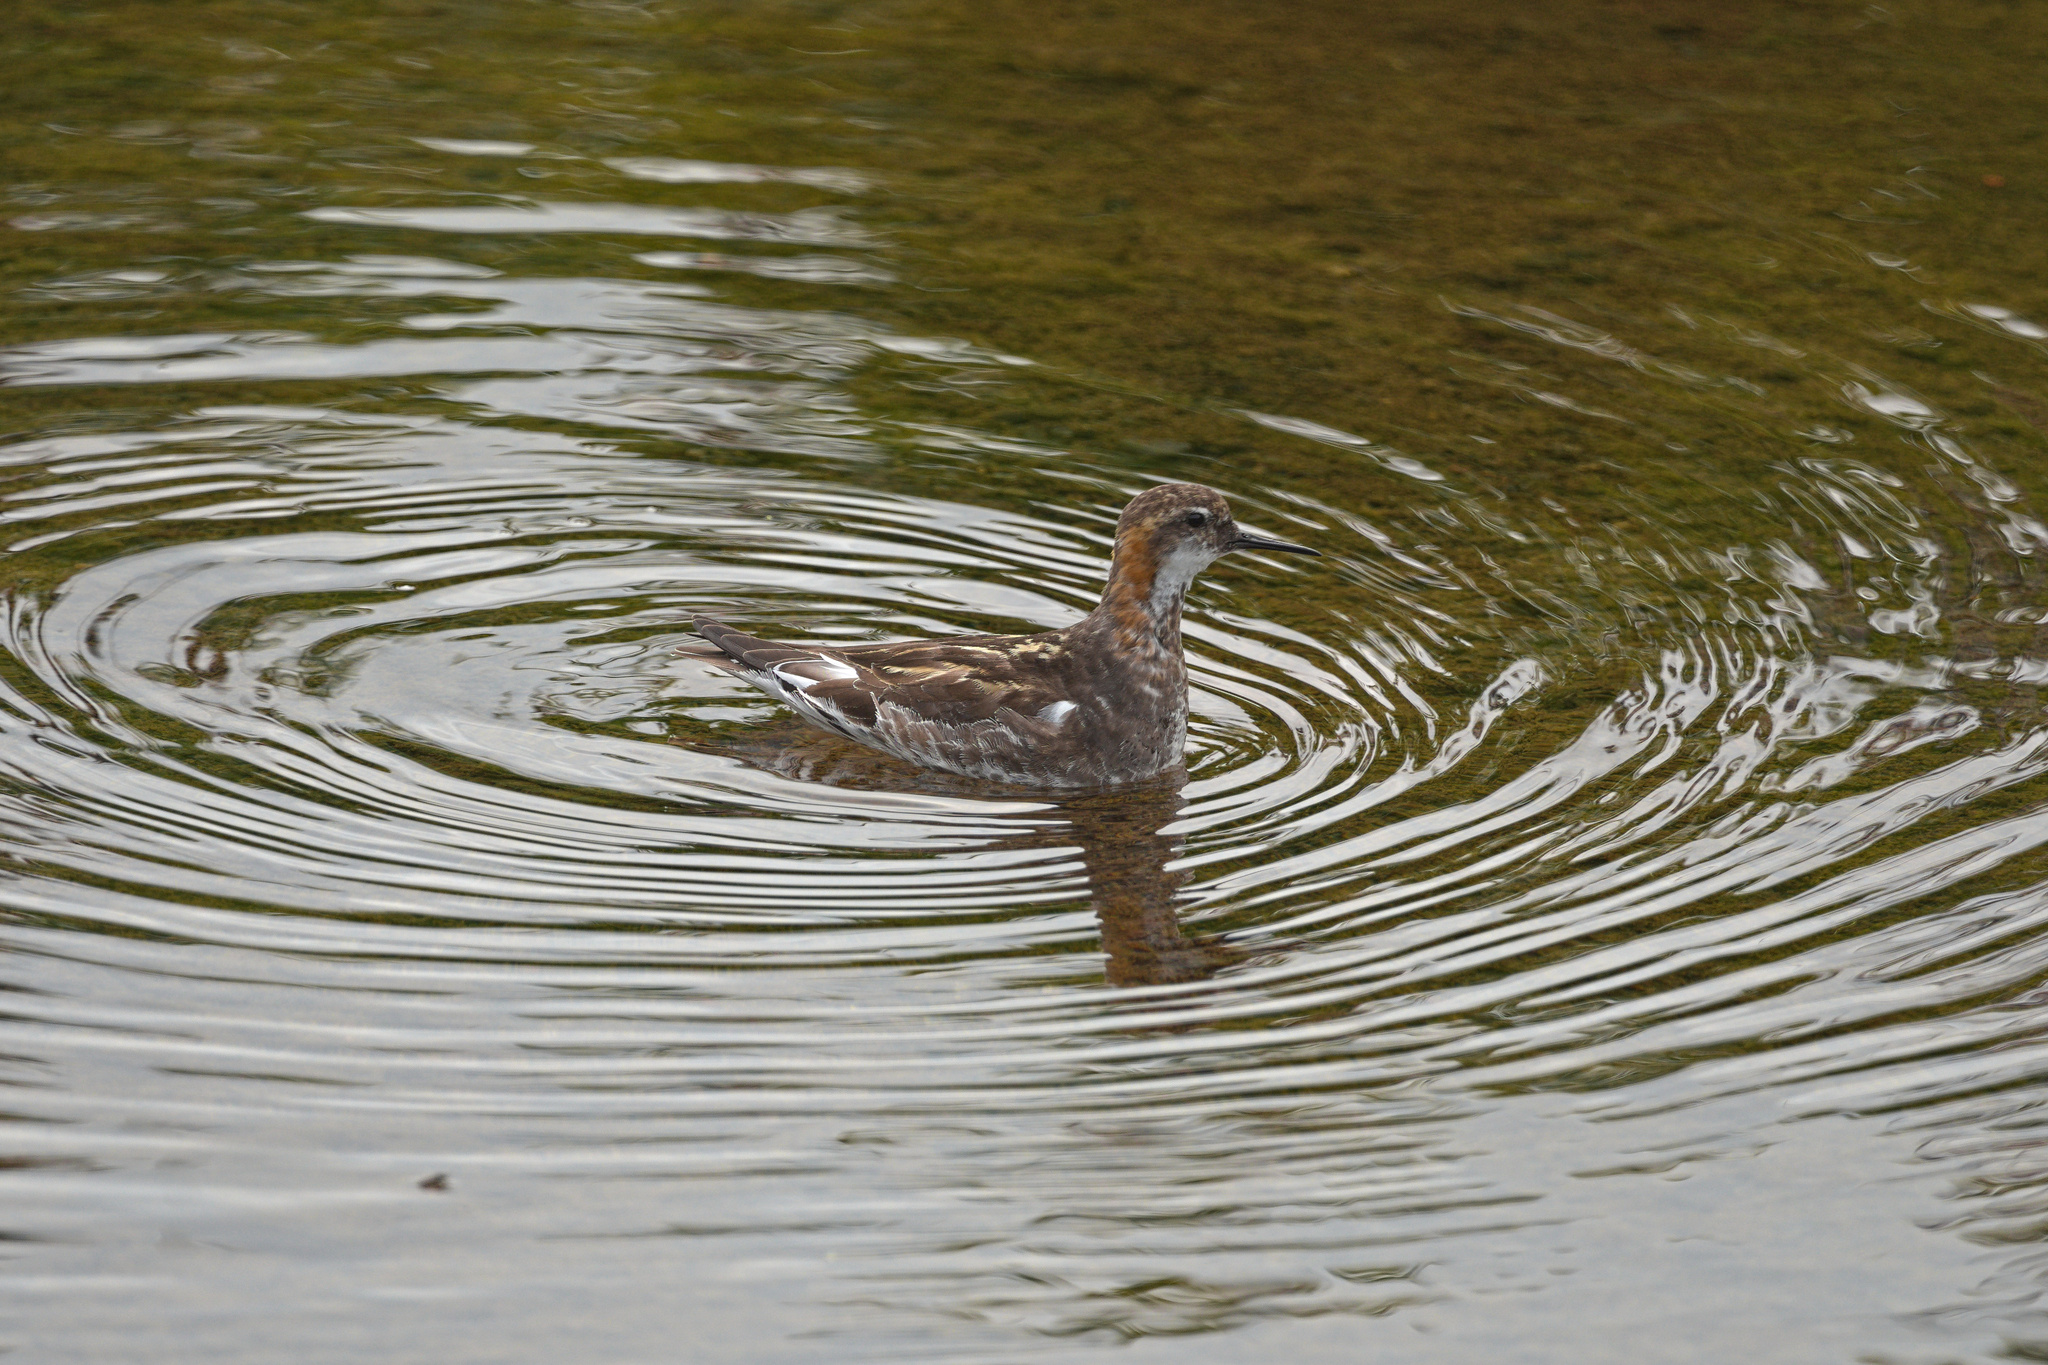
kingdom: Animalia
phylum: Chordata
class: Aves
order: Charadriiformes
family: Scolopacidae
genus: Phalaropus
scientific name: Phalaropus lobatus
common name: Red-necked phalarope
